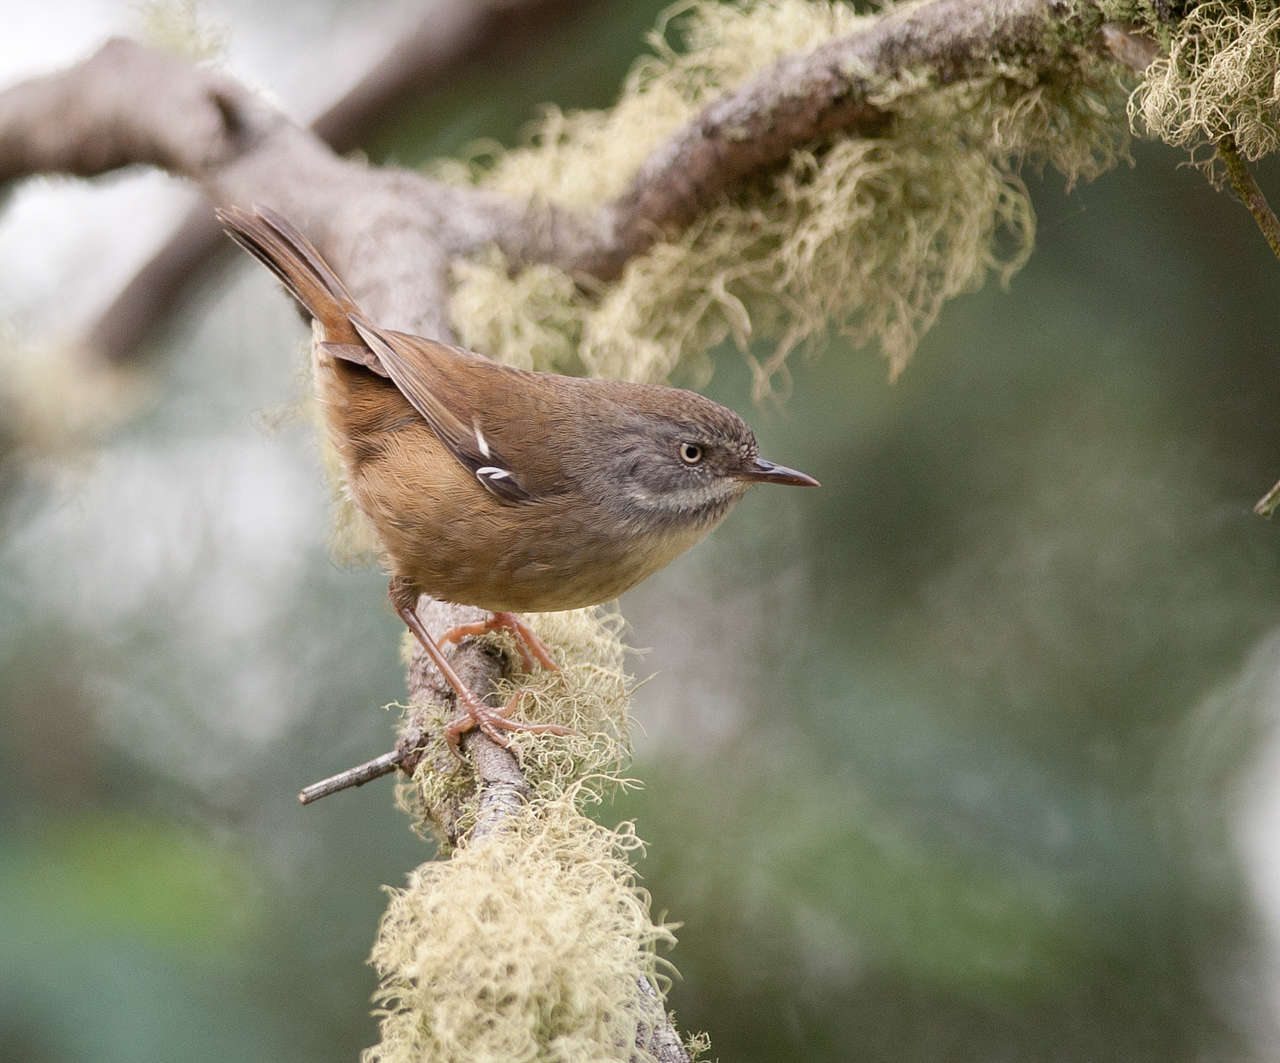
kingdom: Animalia
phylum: Chordata
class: Aves
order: Passeriformes
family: Acanthizidae
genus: Sericornis
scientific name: Sericornis frontalis
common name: White-browed scrubwren
